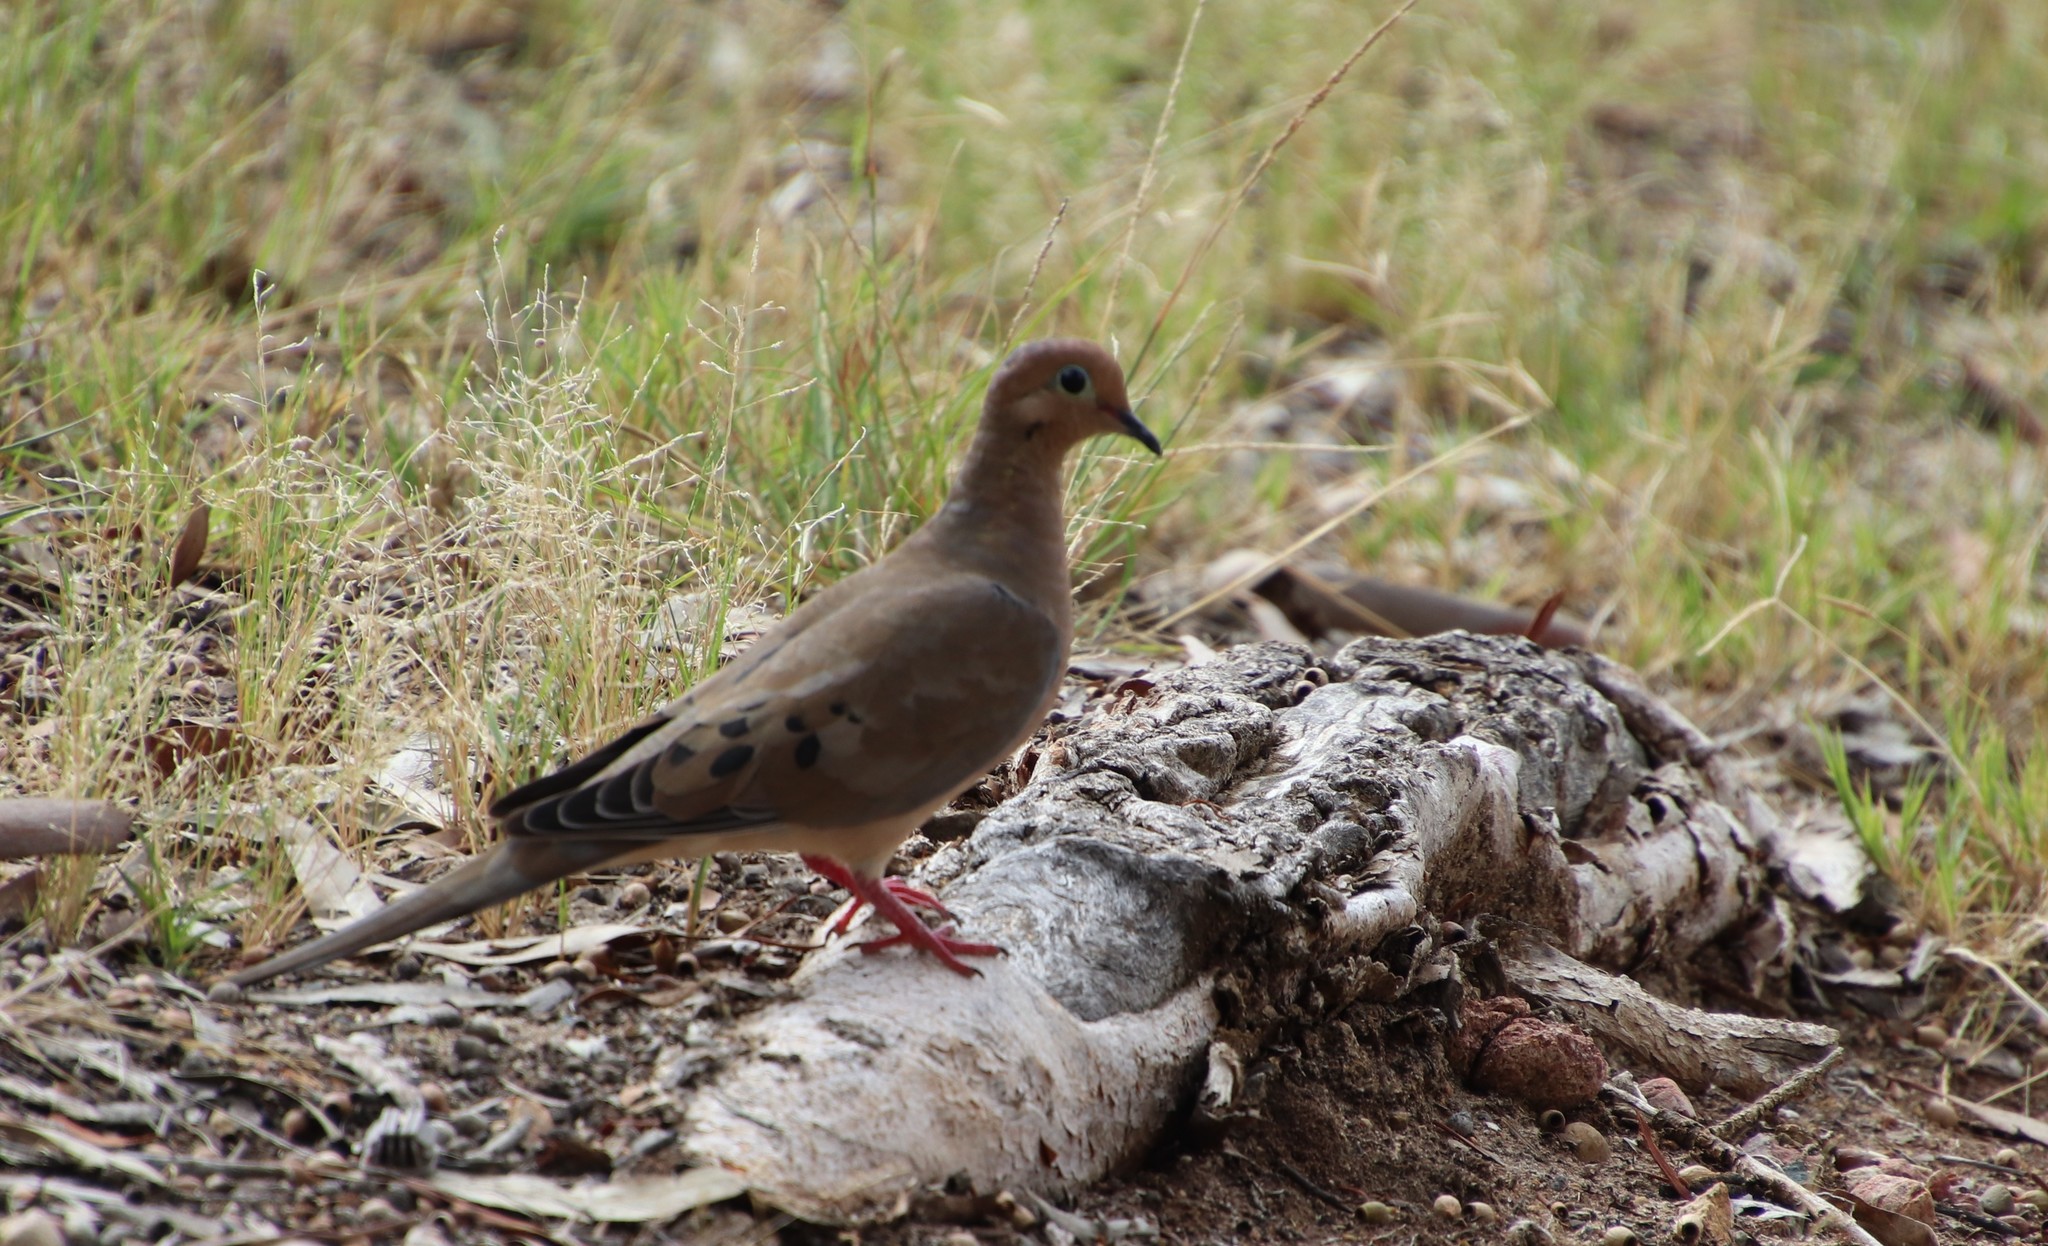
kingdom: Animalia
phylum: Chordata
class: Aves
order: Columbiformes
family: Columbidae
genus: Zenaida
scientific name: Zenaida macroura
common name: Mourning dove
